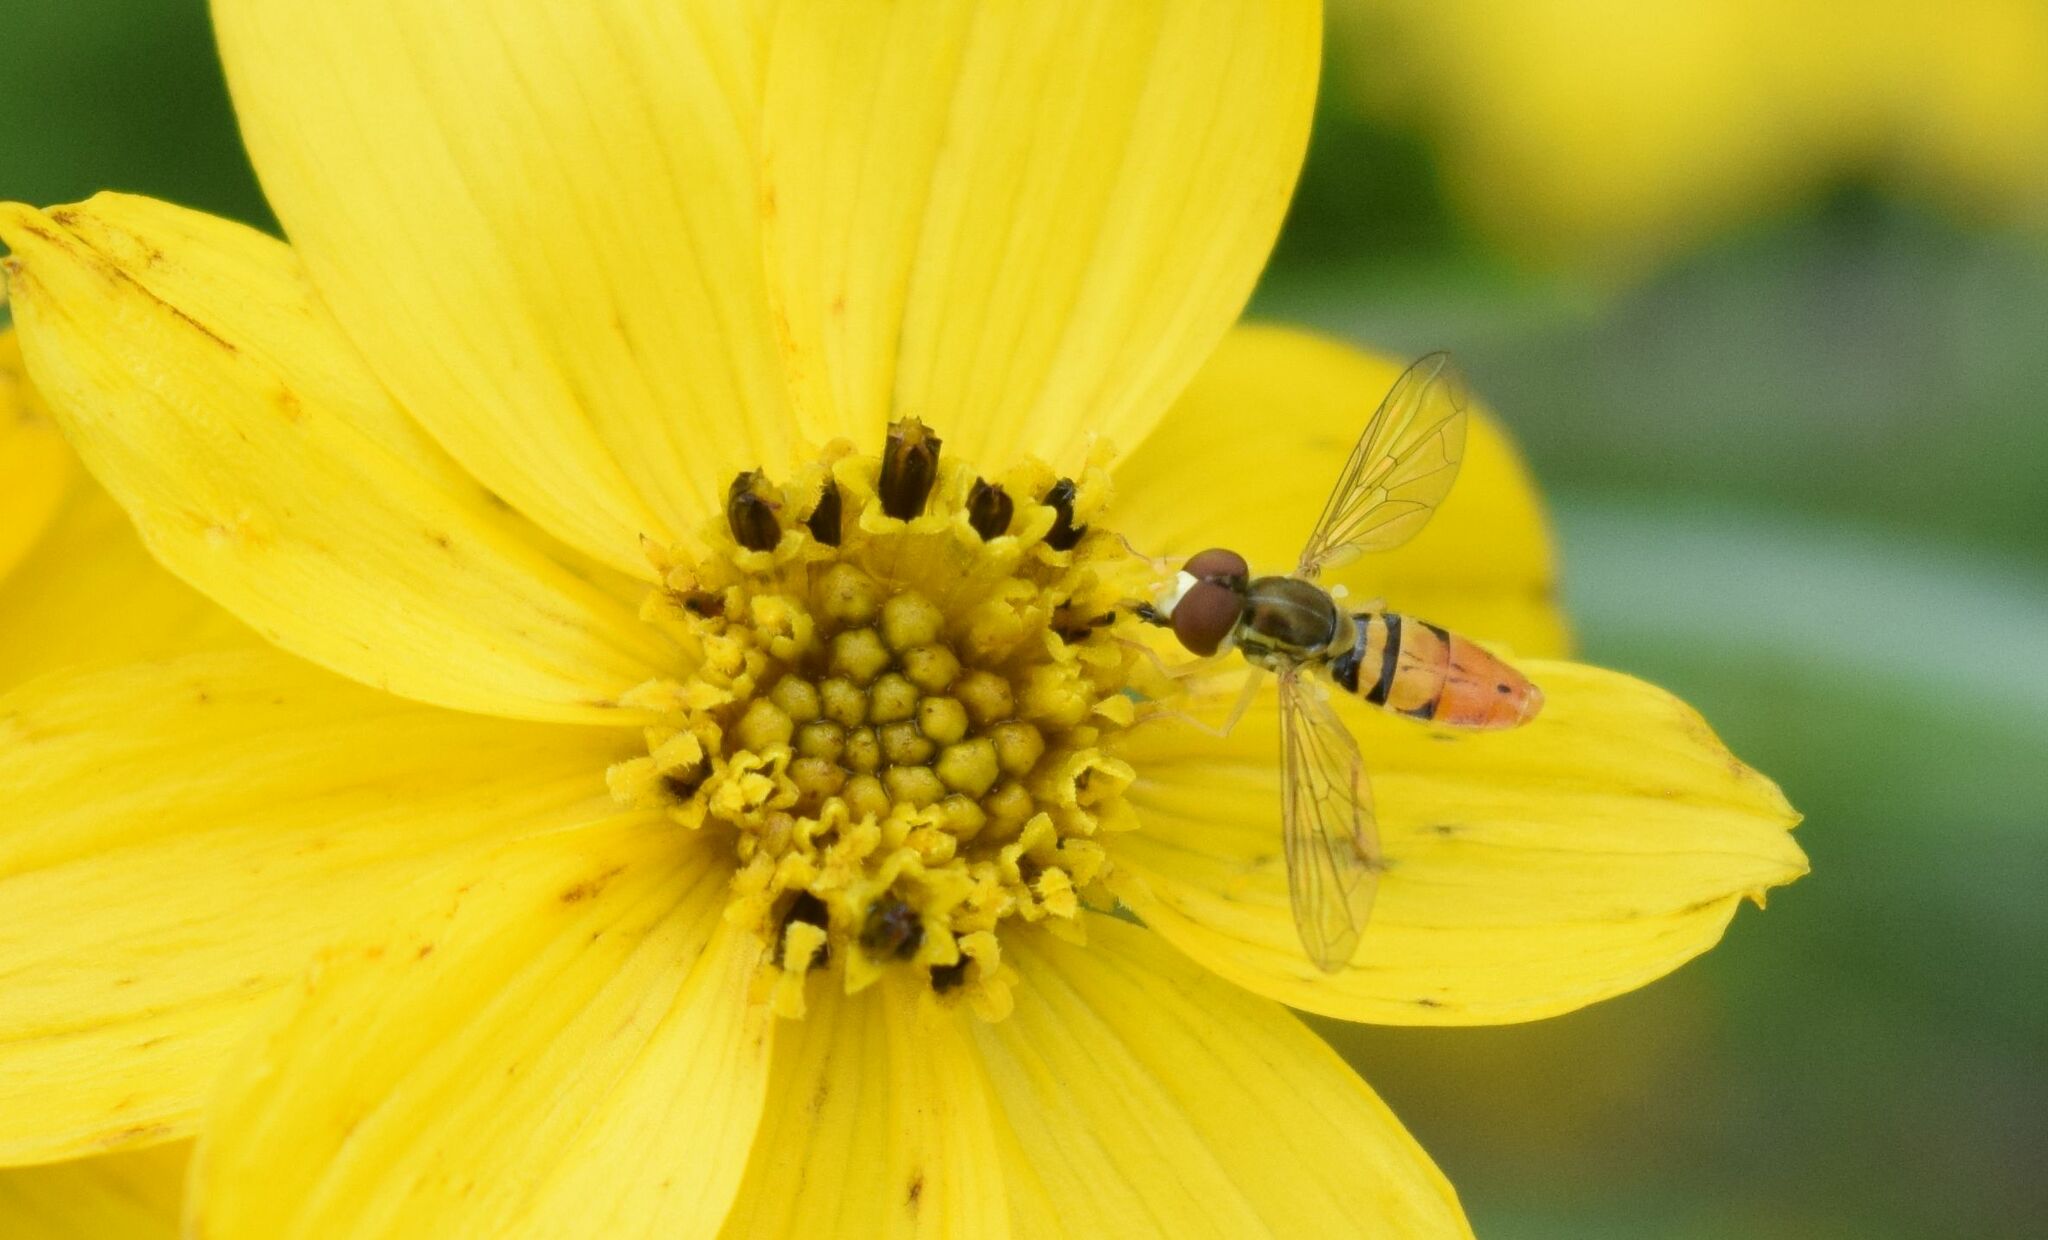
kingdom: Animalia
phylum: Arthropoda
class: Insecta
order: Diptera
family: Syrphidae
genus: Toxomerus
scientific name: Toxomerus marginatus
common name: Syrphid fly
